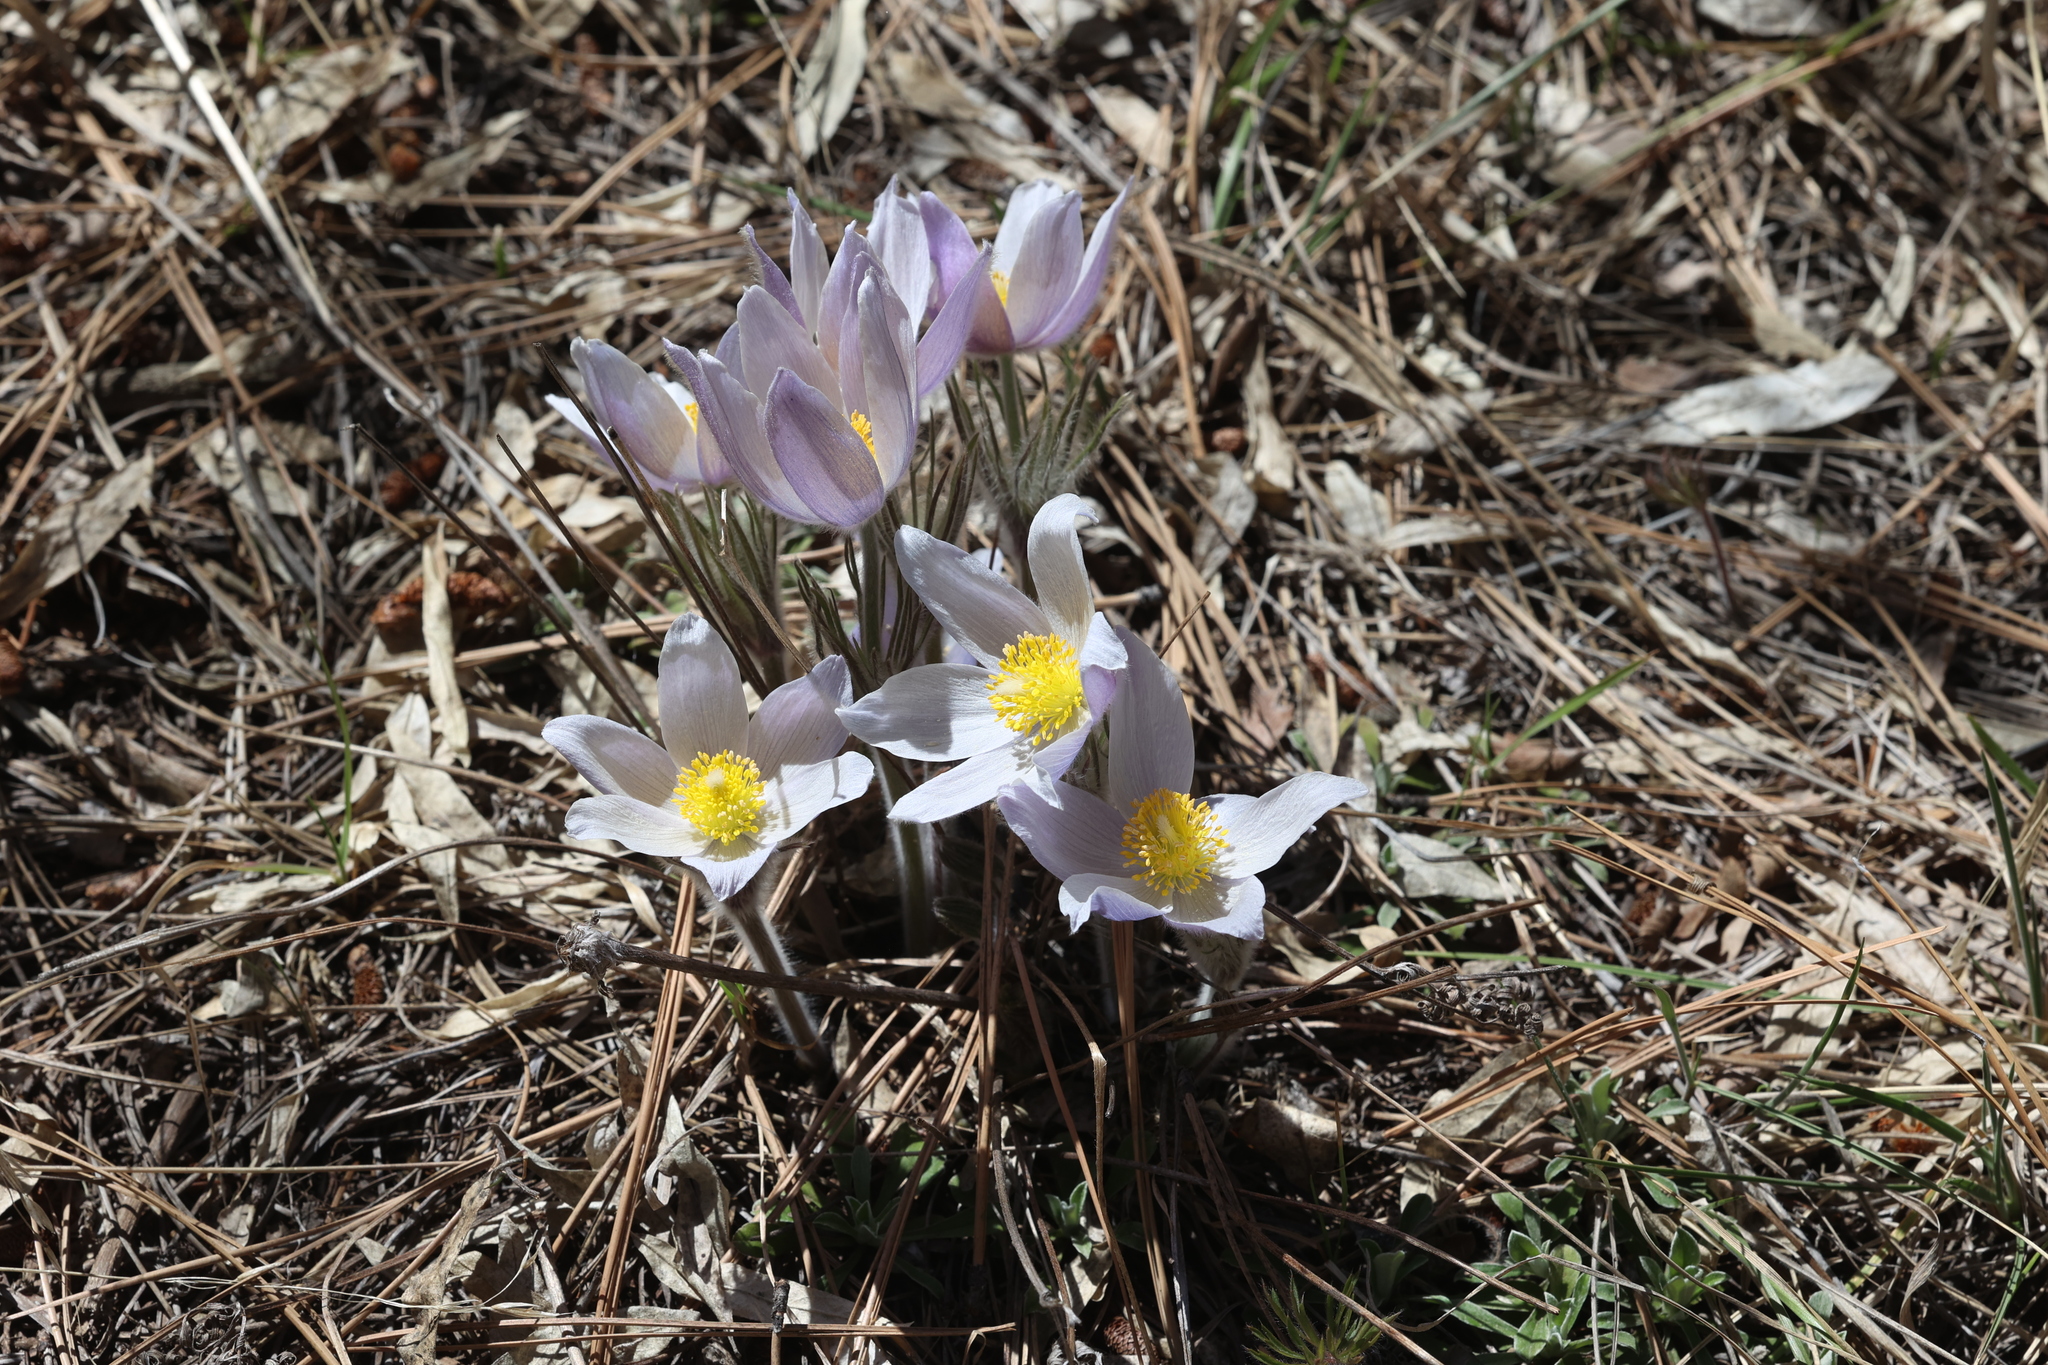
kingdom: Plantae
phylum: Tracheophyta
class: Magnoliopsida
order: Ranunculales
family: Ranunculaceae
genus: Pulsatilla
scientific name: Pulsatilla nuttalliana
